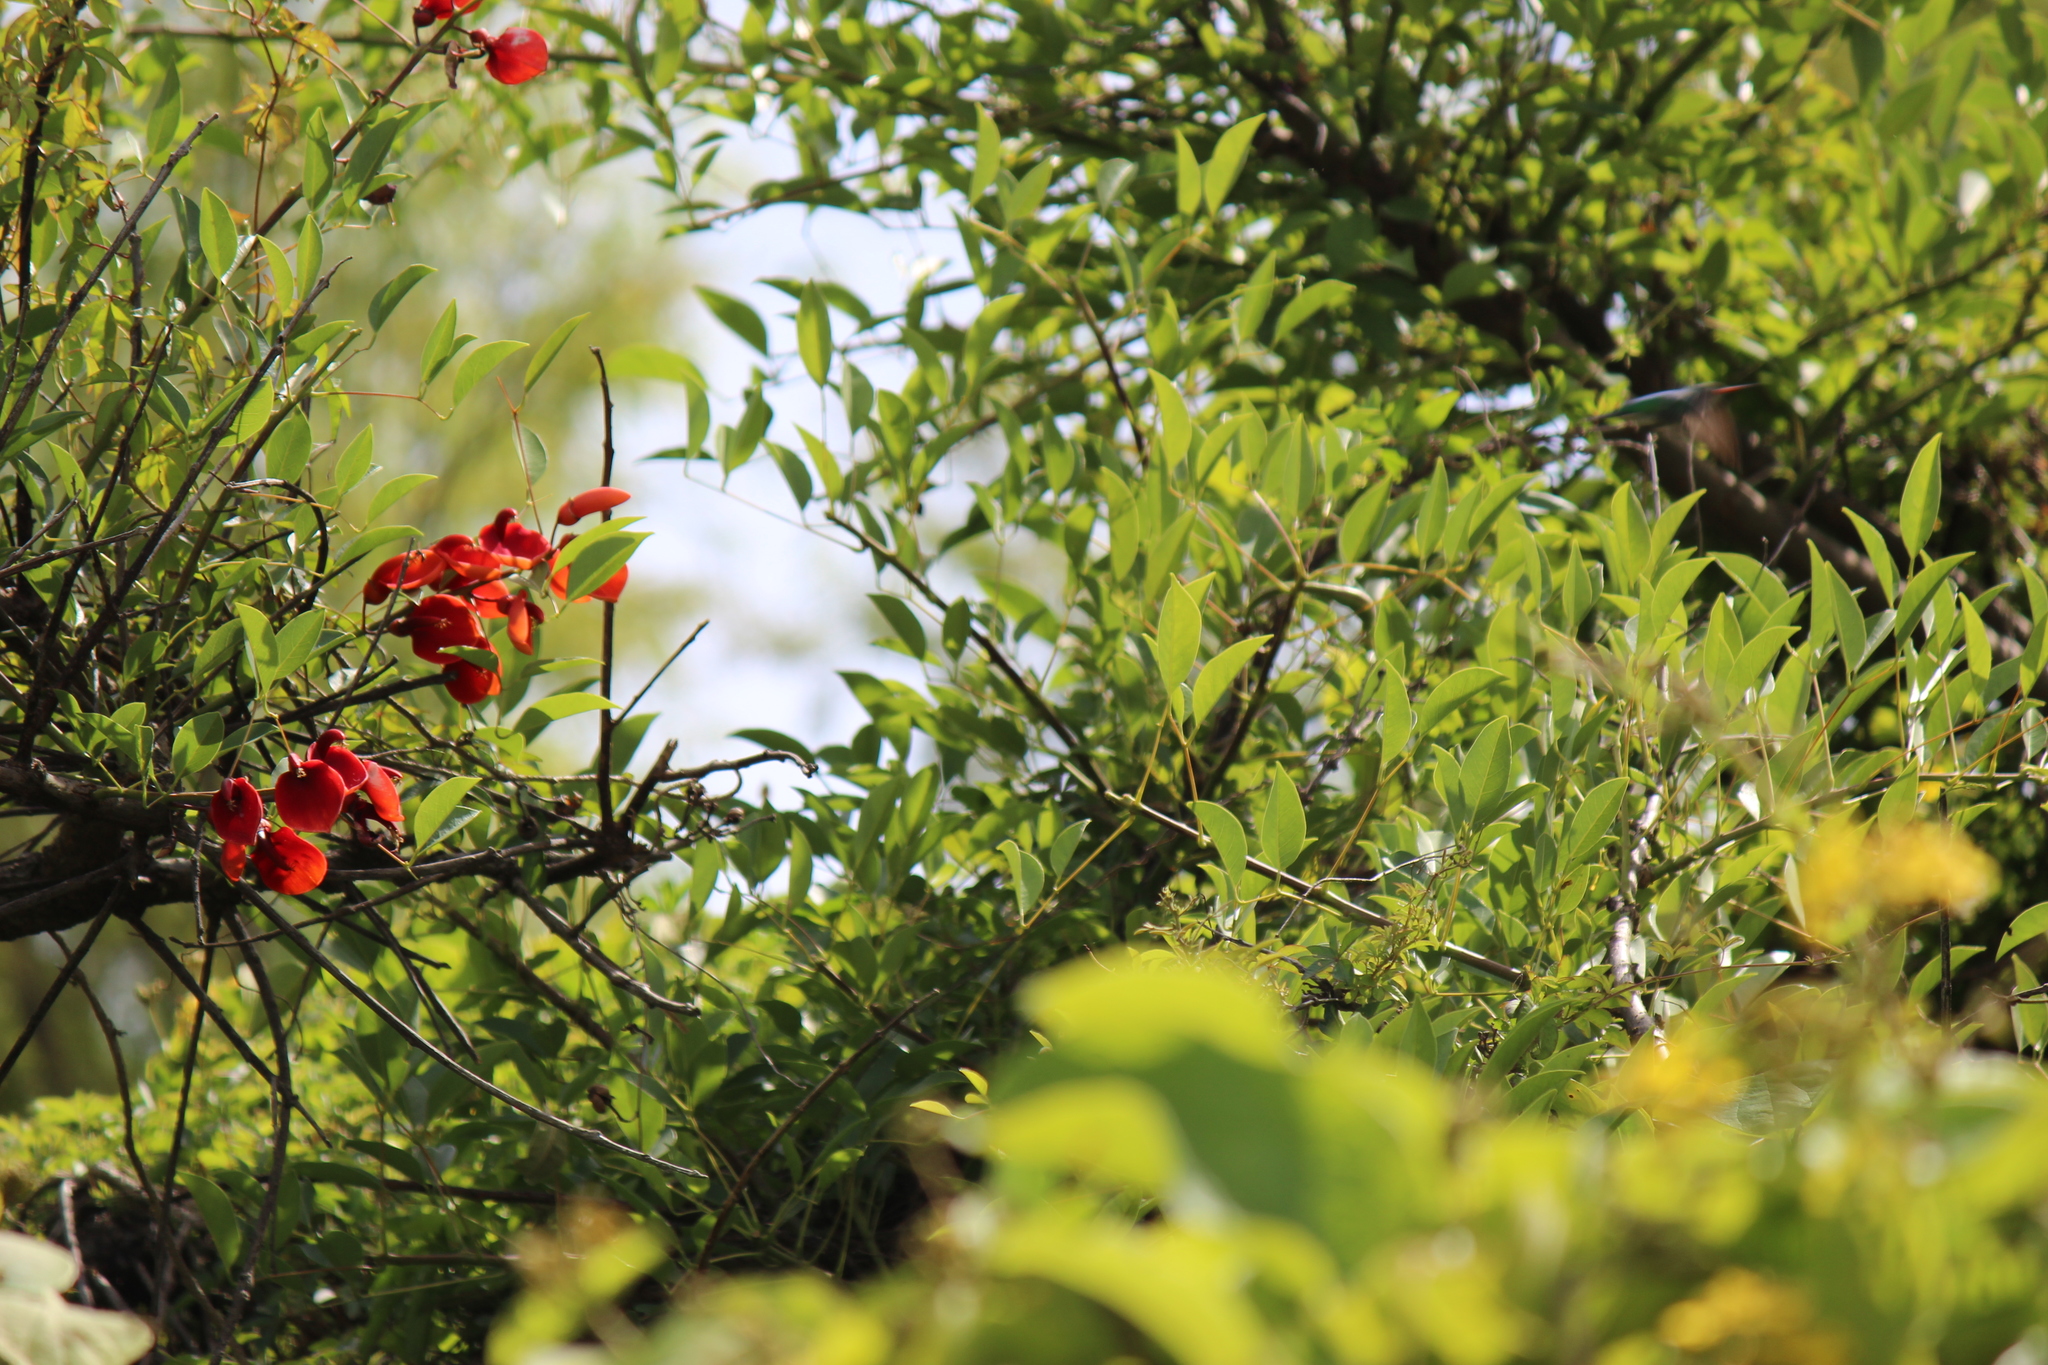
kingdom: Plantae
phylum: Tracheophyta
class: Magnoliopsida
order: Fabales
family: Fabaceae
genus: Erythrina
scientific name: Erythrina crista-galli
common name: Cockspur coral tree
